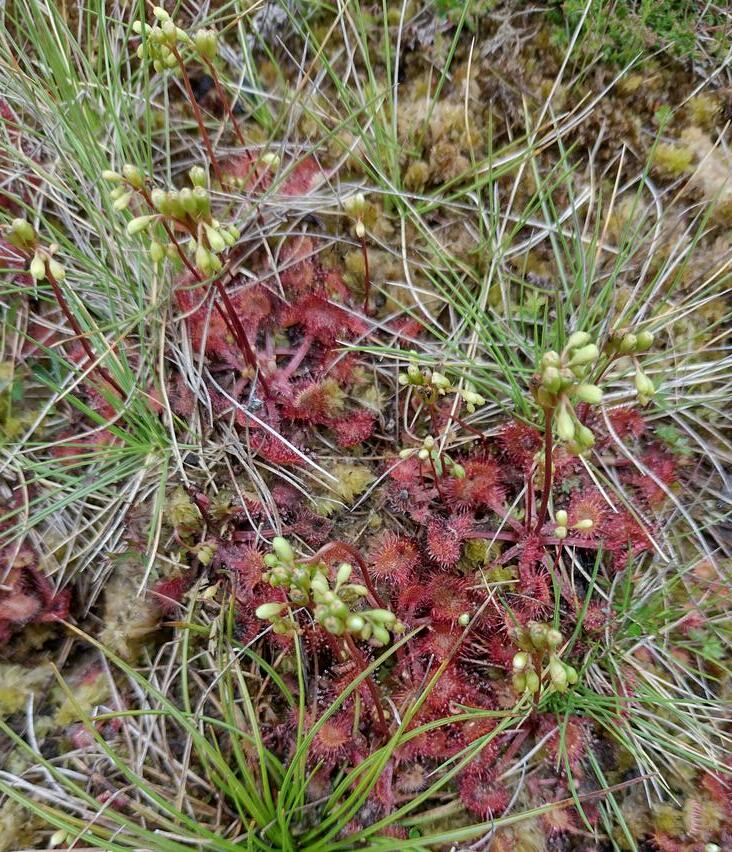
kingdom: Plantae
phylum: Tracheophyta
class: Magnoliopsida
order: Caryophyllales
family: Droseraceae
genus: Drosera
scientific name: Drosera rotundifolia
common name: Round-leaved sundew
